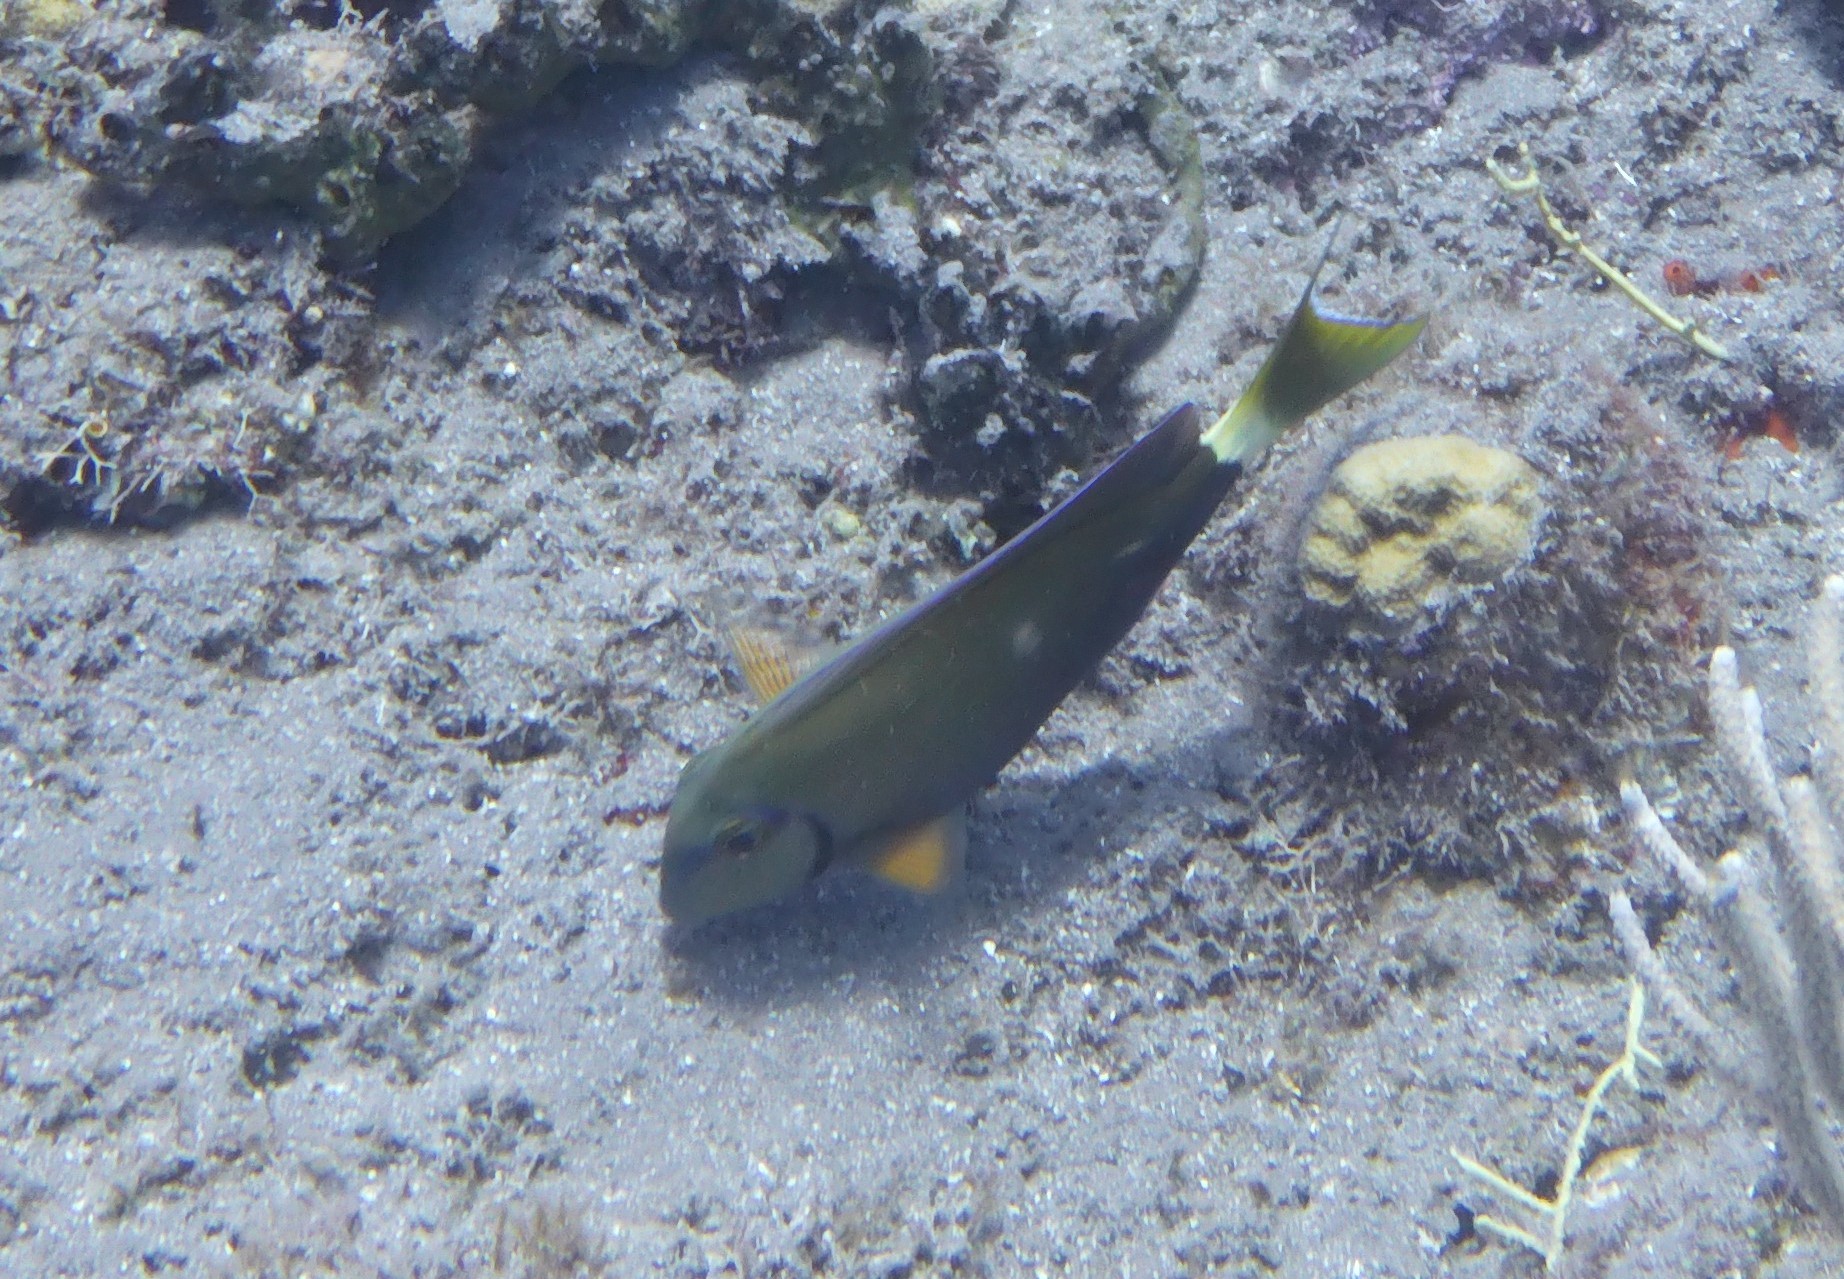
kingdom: Animalia
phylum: Chordata
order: Perciformes
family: Acanthuridae
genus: Acanthurus
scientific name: Acanthurus bahianus
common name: Ocean surgeon
